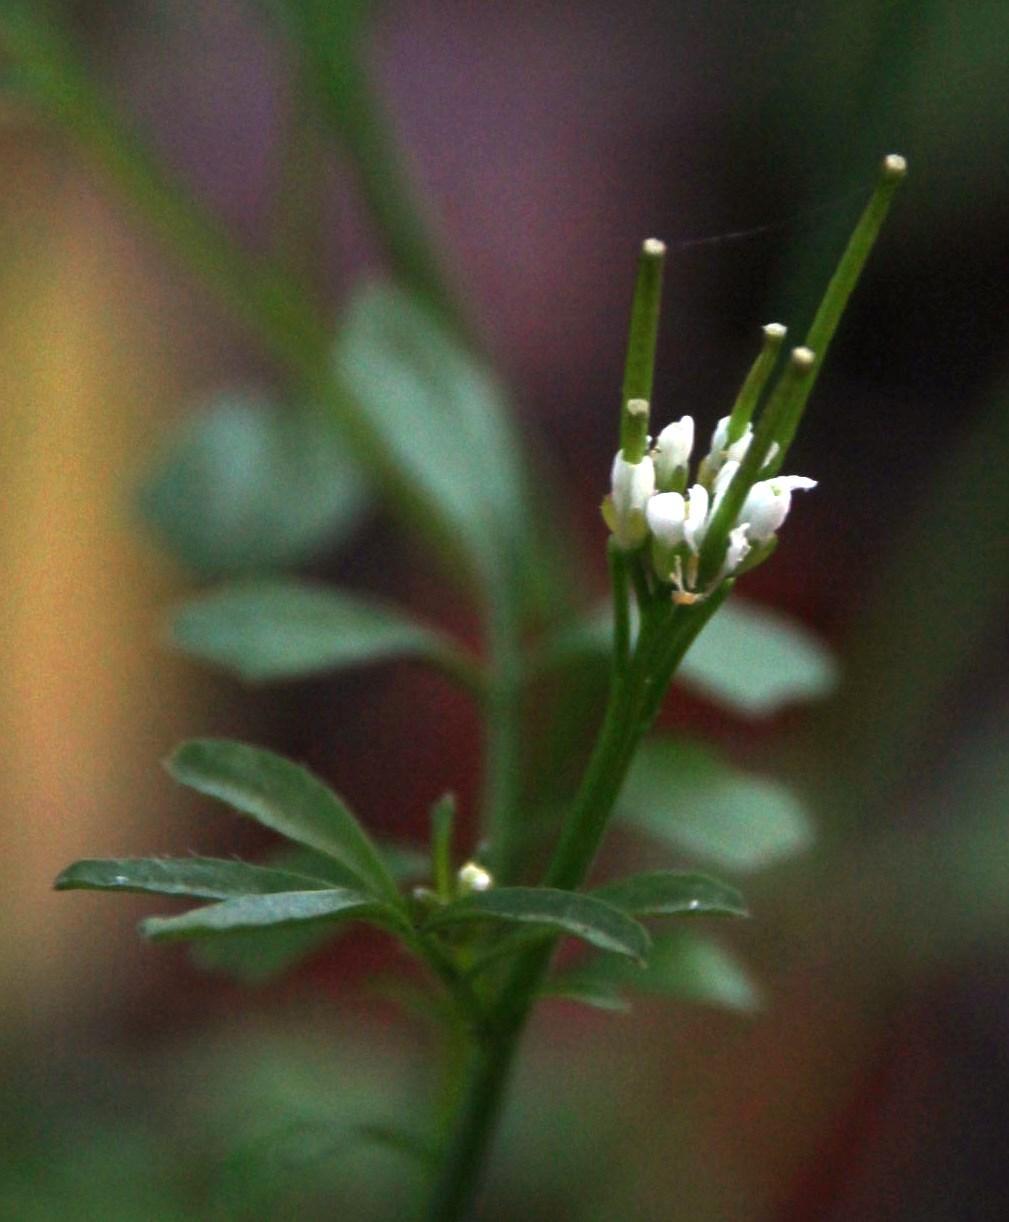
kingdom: Plantae
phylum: Tracheophyta
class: Magnoliopsida
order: Brassicales
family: Brassicaceae
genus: Cardamine
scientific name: Cardamine hirsuta
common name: Hairy bittercress
